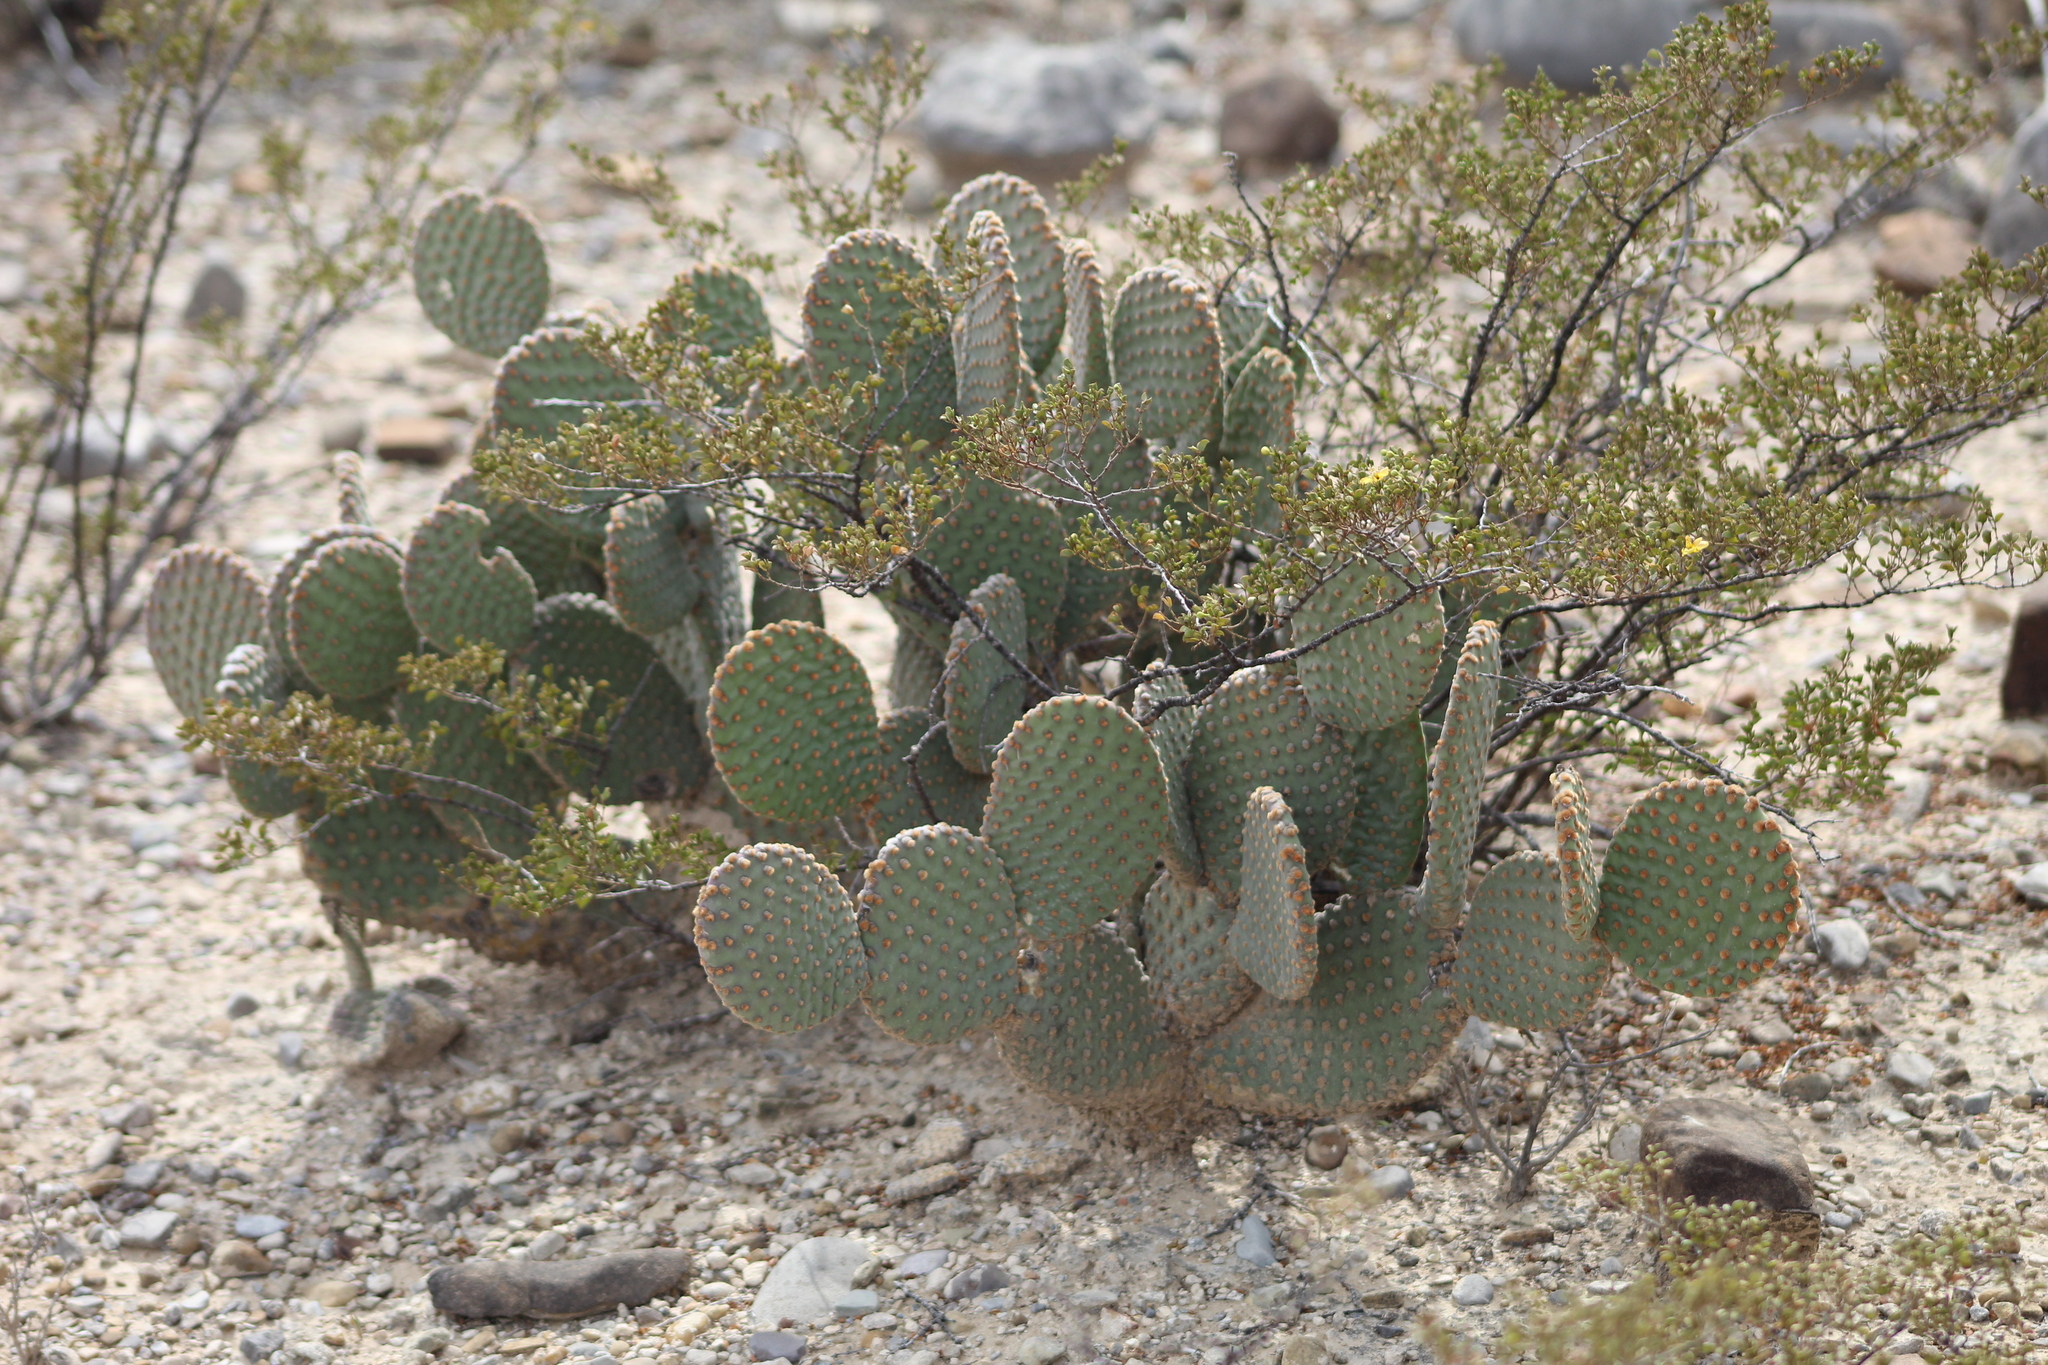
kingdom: Plantae
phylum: Tracheophyta
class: Magnoliopsida
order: Caryophyllales
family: Cactaceae
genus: Opuntia
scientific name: Opuntia microdasys
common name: Angel's-wings
